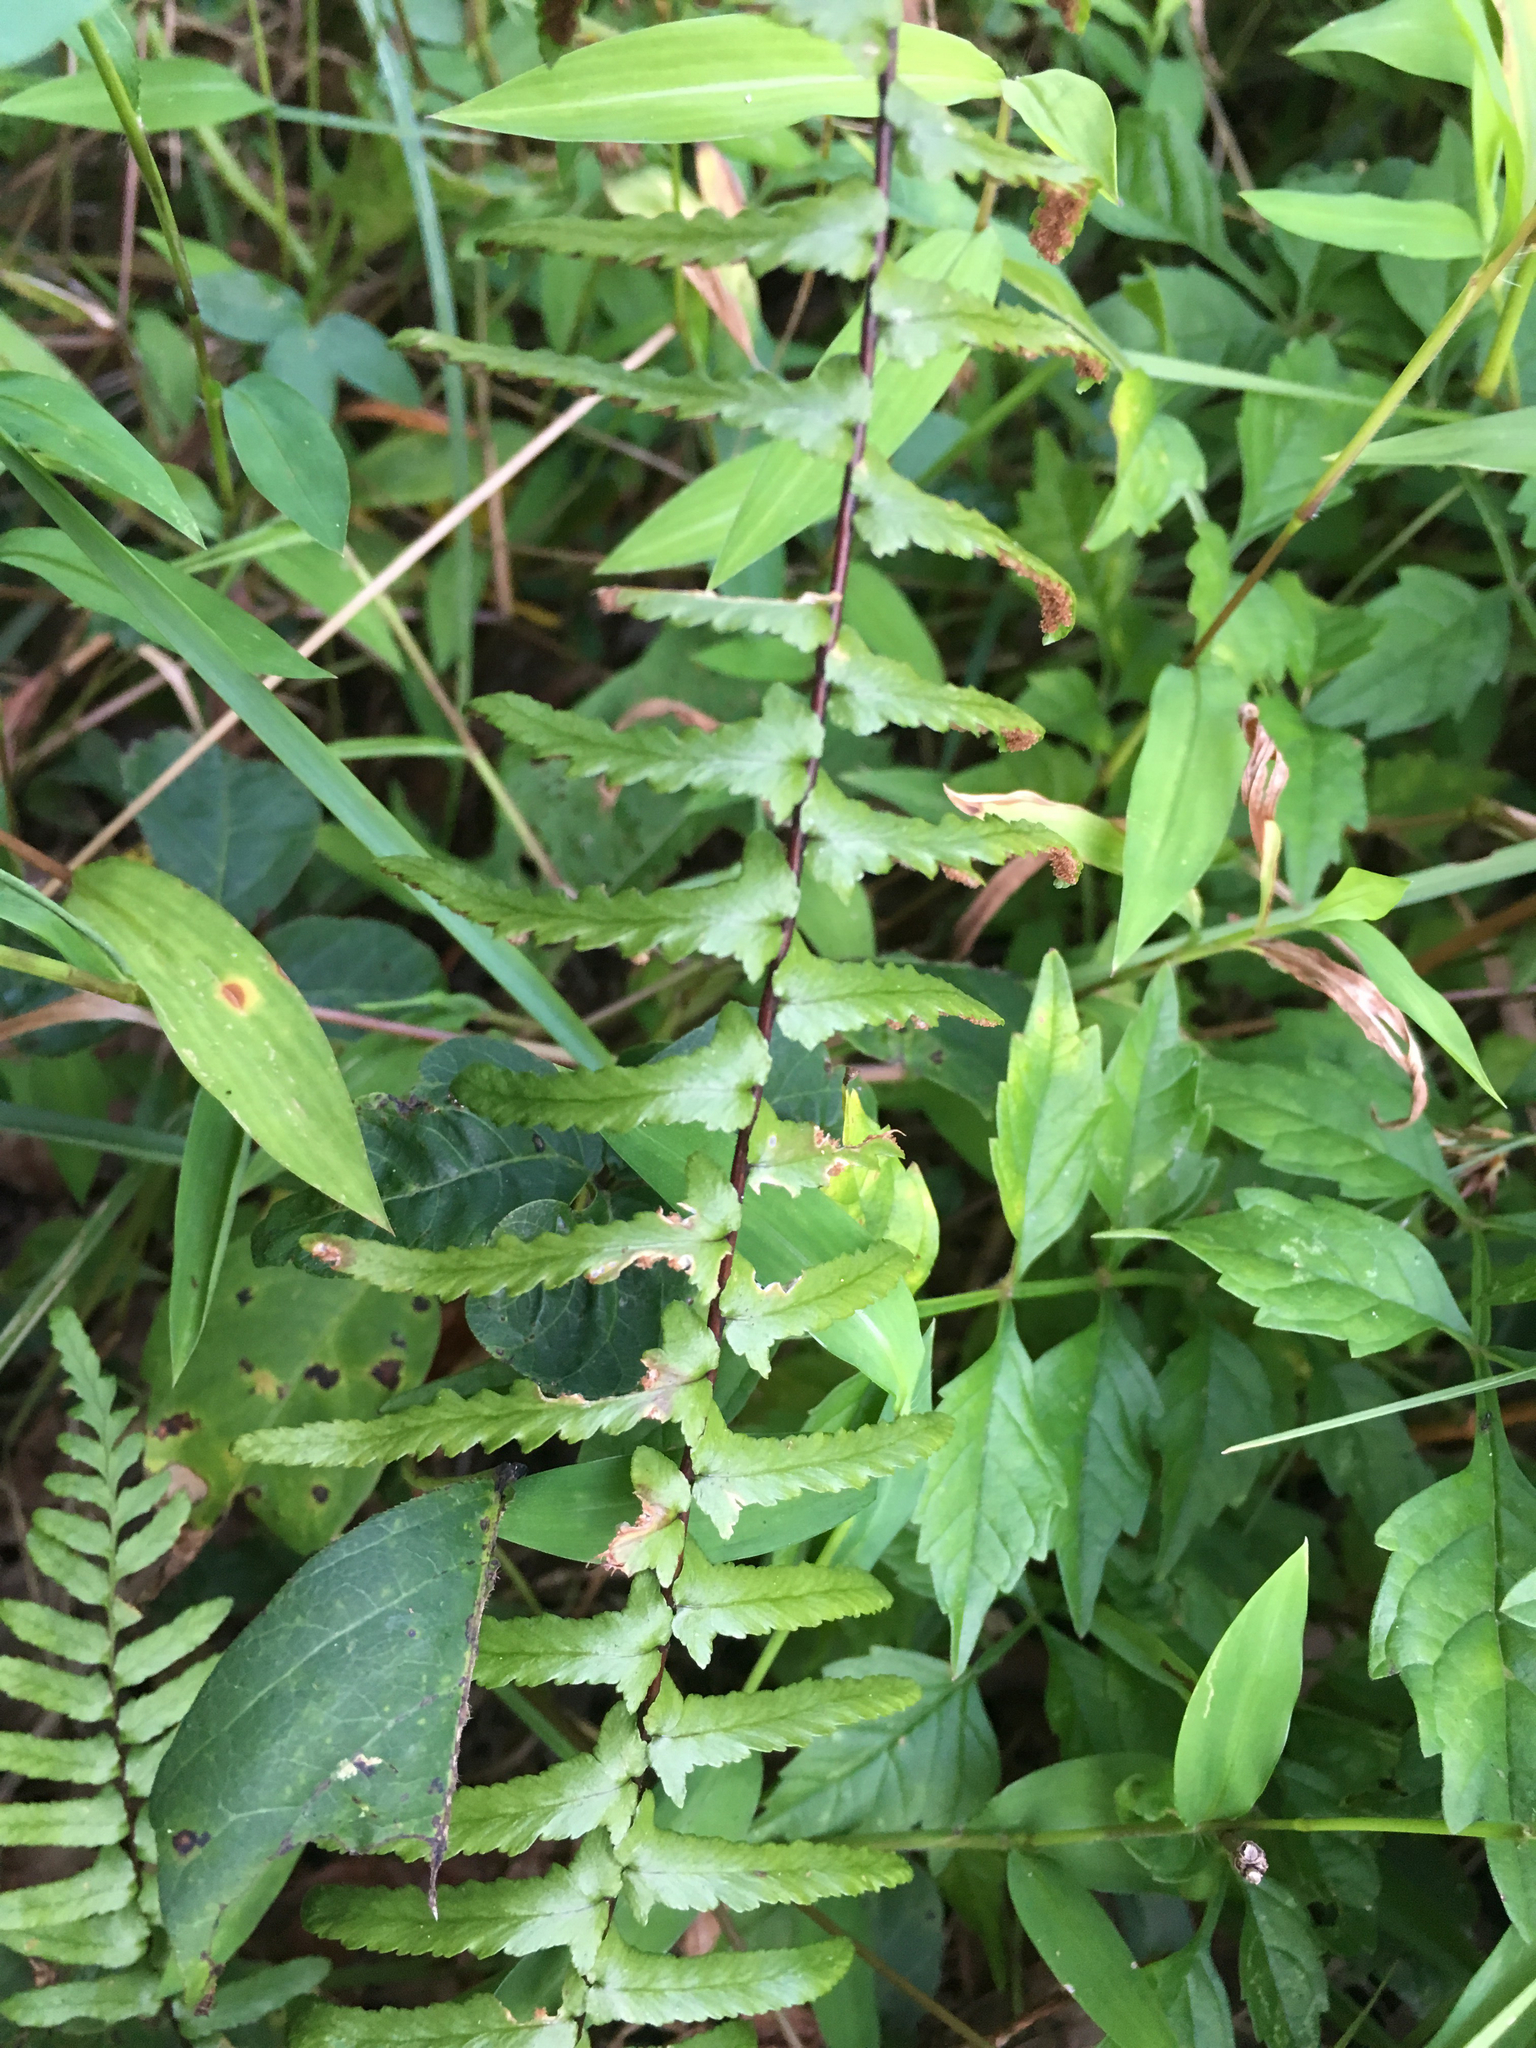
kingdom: Plantae
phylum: Tracheophyta
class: Polypodiopsida
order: Polypodiales
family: Aspleniaceae
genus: Asplenium
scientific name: Asplenium platyneuron
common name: Ebony spleenwort
